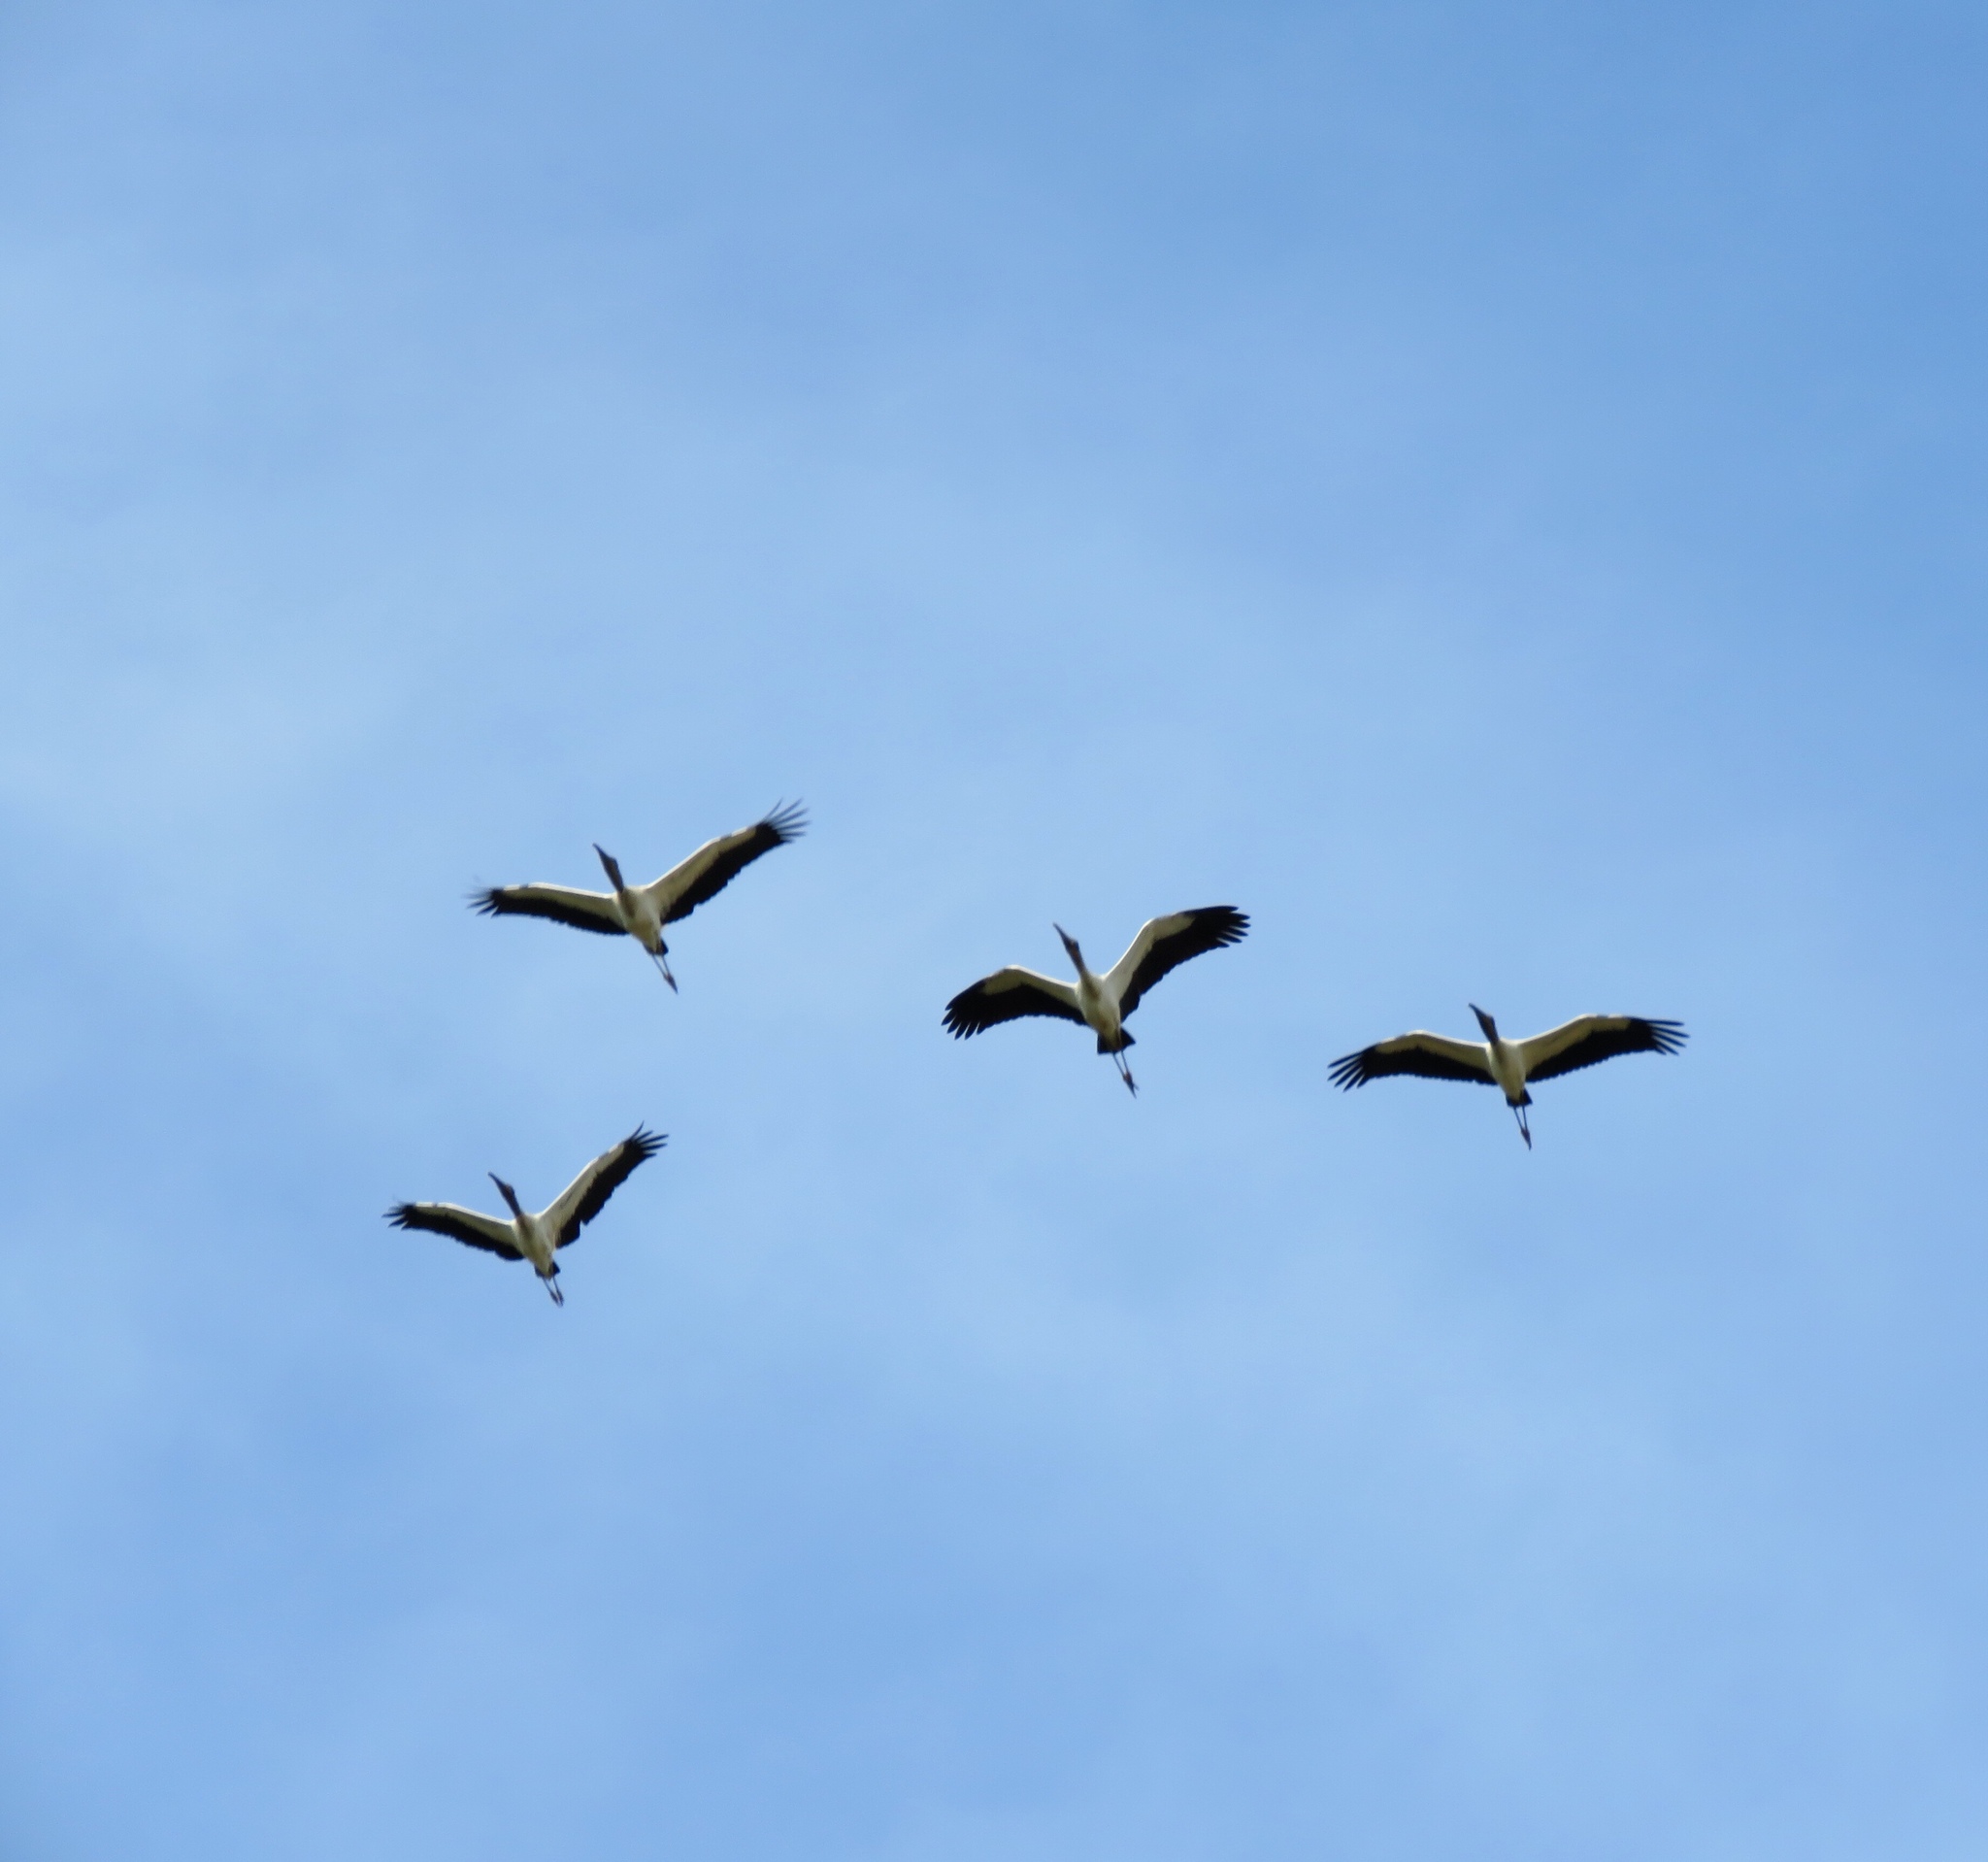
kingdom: Animalia
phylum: Chordata
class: Aves
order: Ciconiiformes
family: Ciconiidae
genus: Mycteria
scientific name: Mycteria americana
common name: Wood stork
